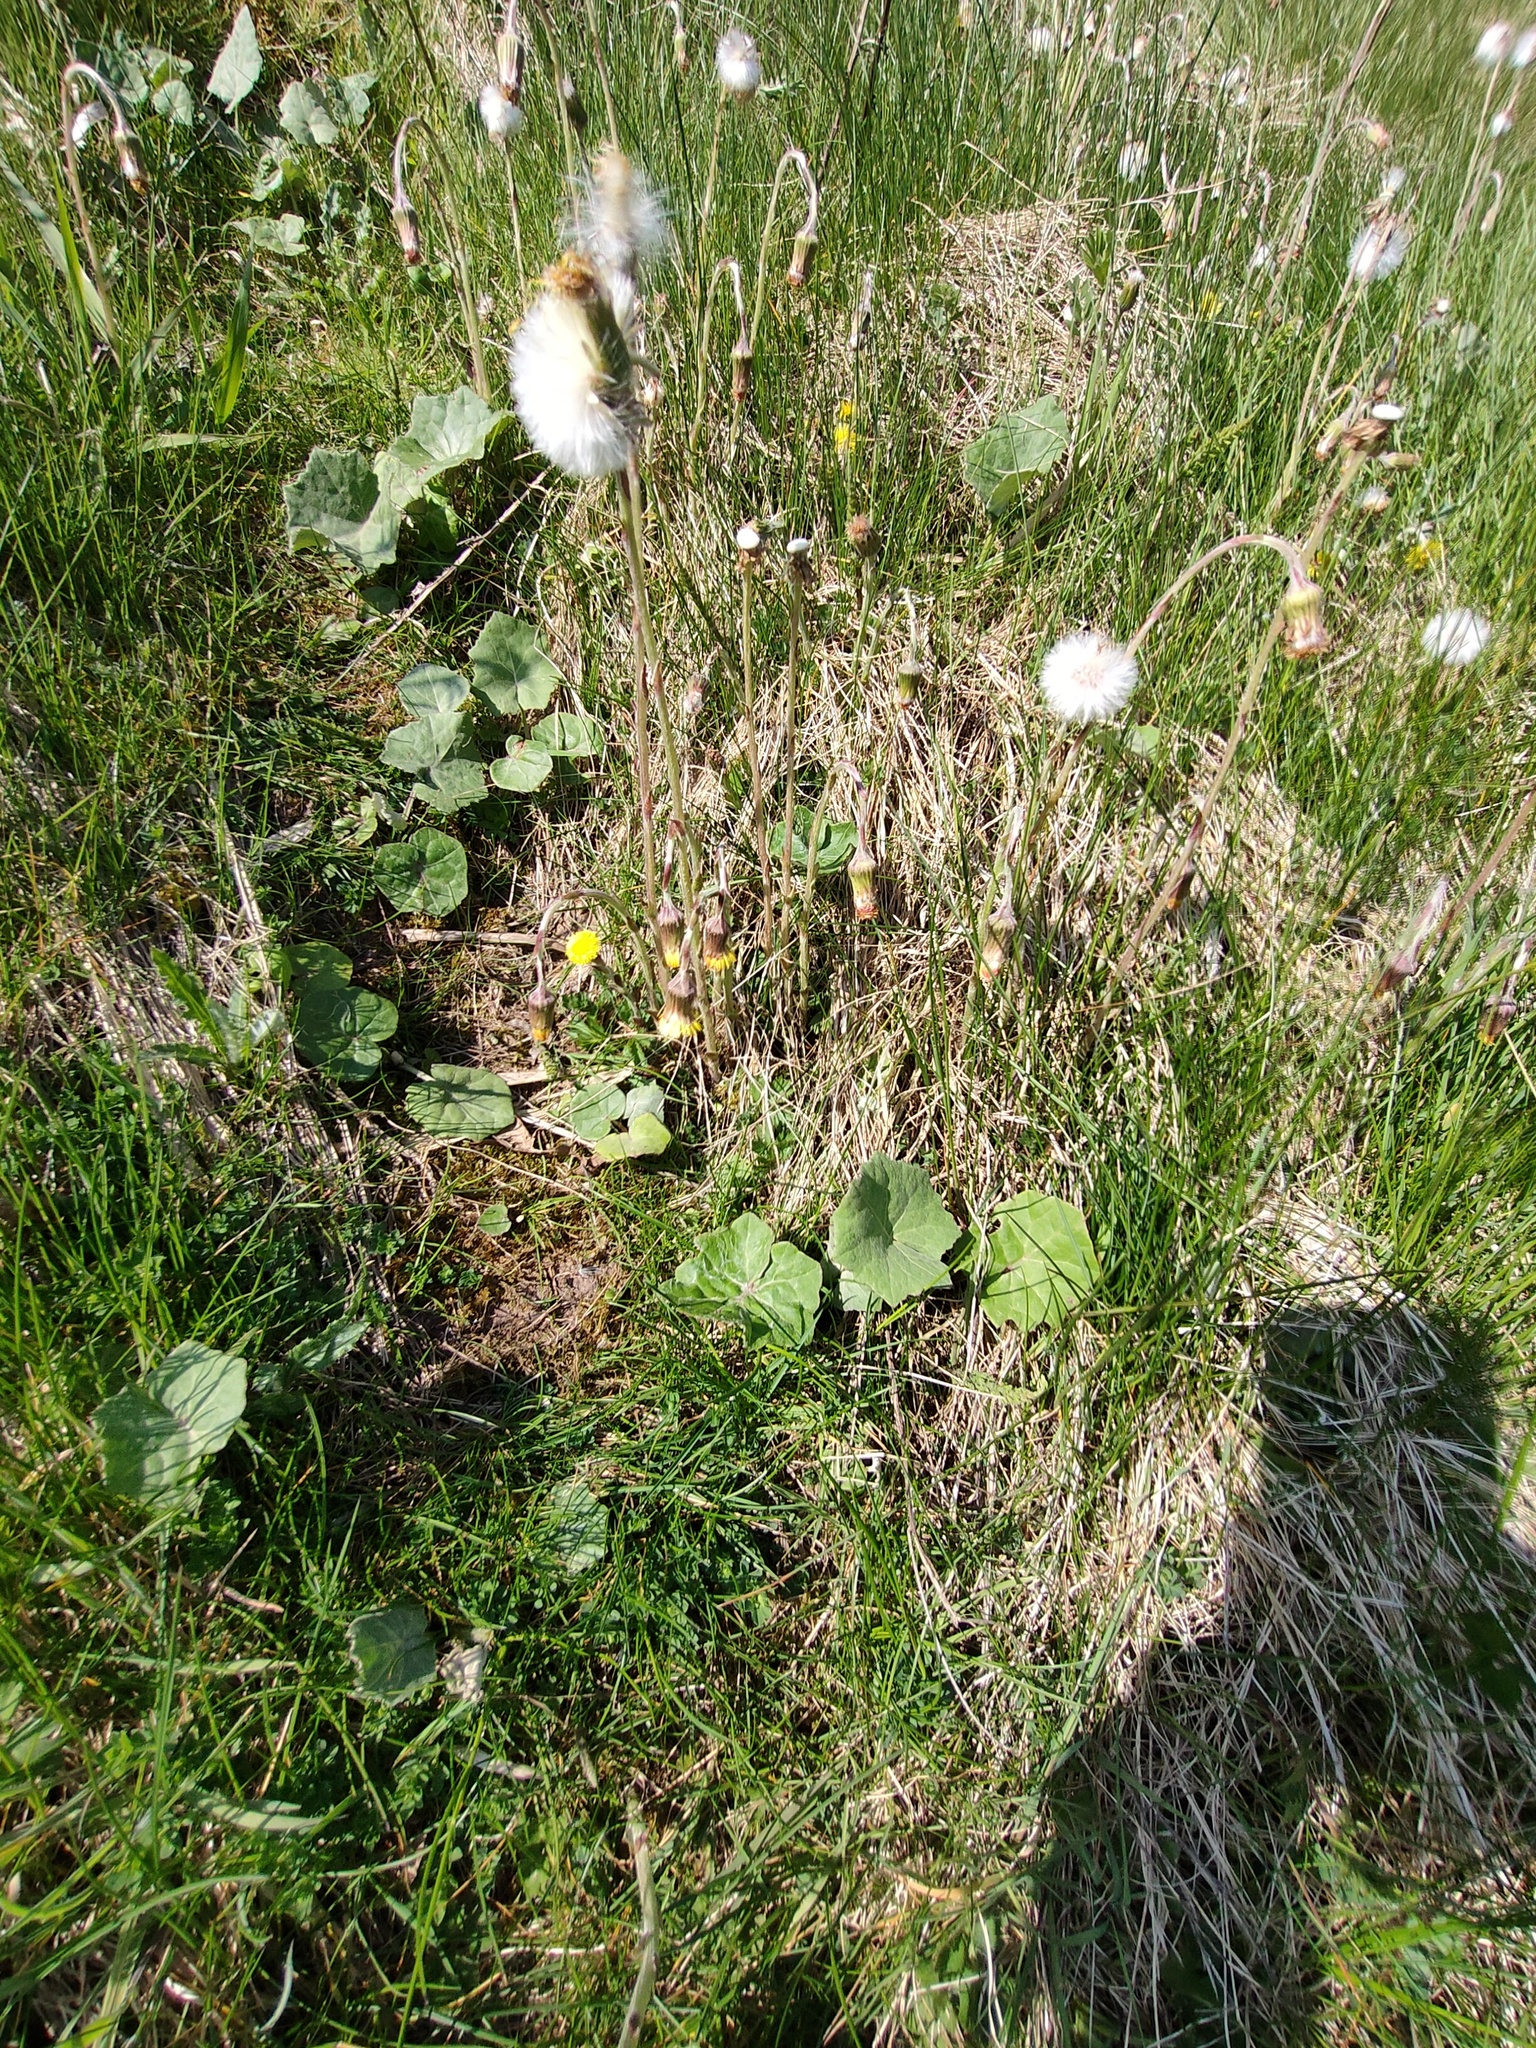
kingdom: Plantae
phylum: Tracheophyta
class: Magnoliopsida
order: Asterales
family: Asteraceae
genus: Tussilago
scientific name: Tussilago farfara
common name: Coltsfoot
